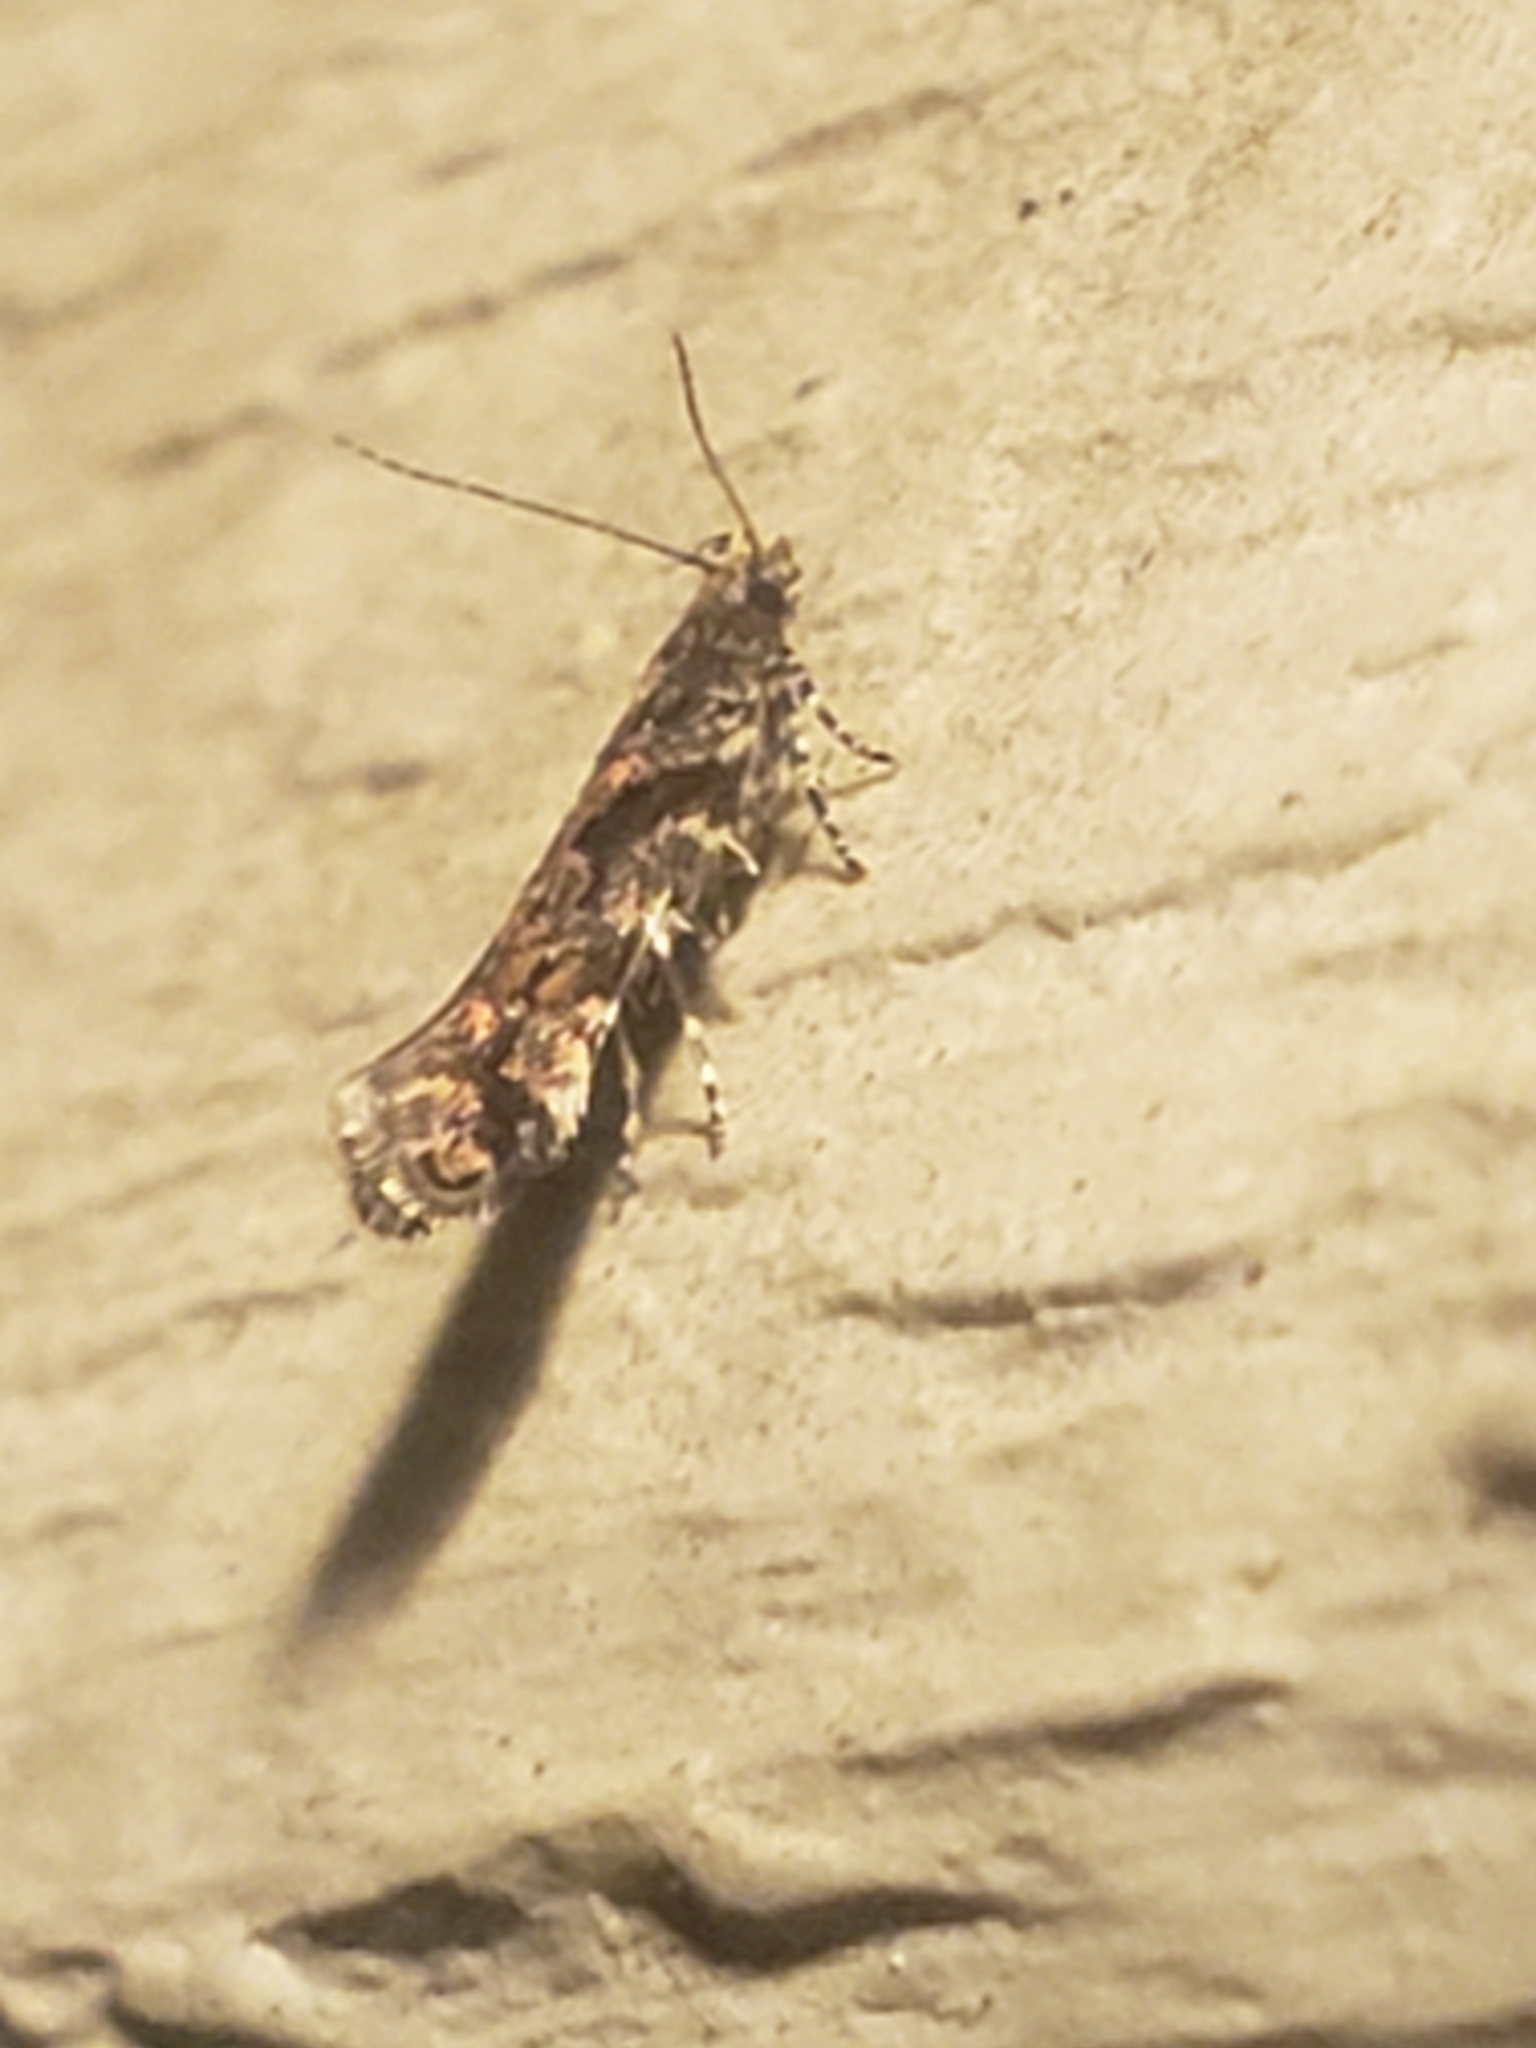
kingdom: Animalia
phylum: Arthropoda
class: Insecta
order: Lepidoptera
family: Gelechiidae
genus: Aristotelia
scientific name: Aristotelia roseosuffusella
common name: Pink-washed aristotelia moth
